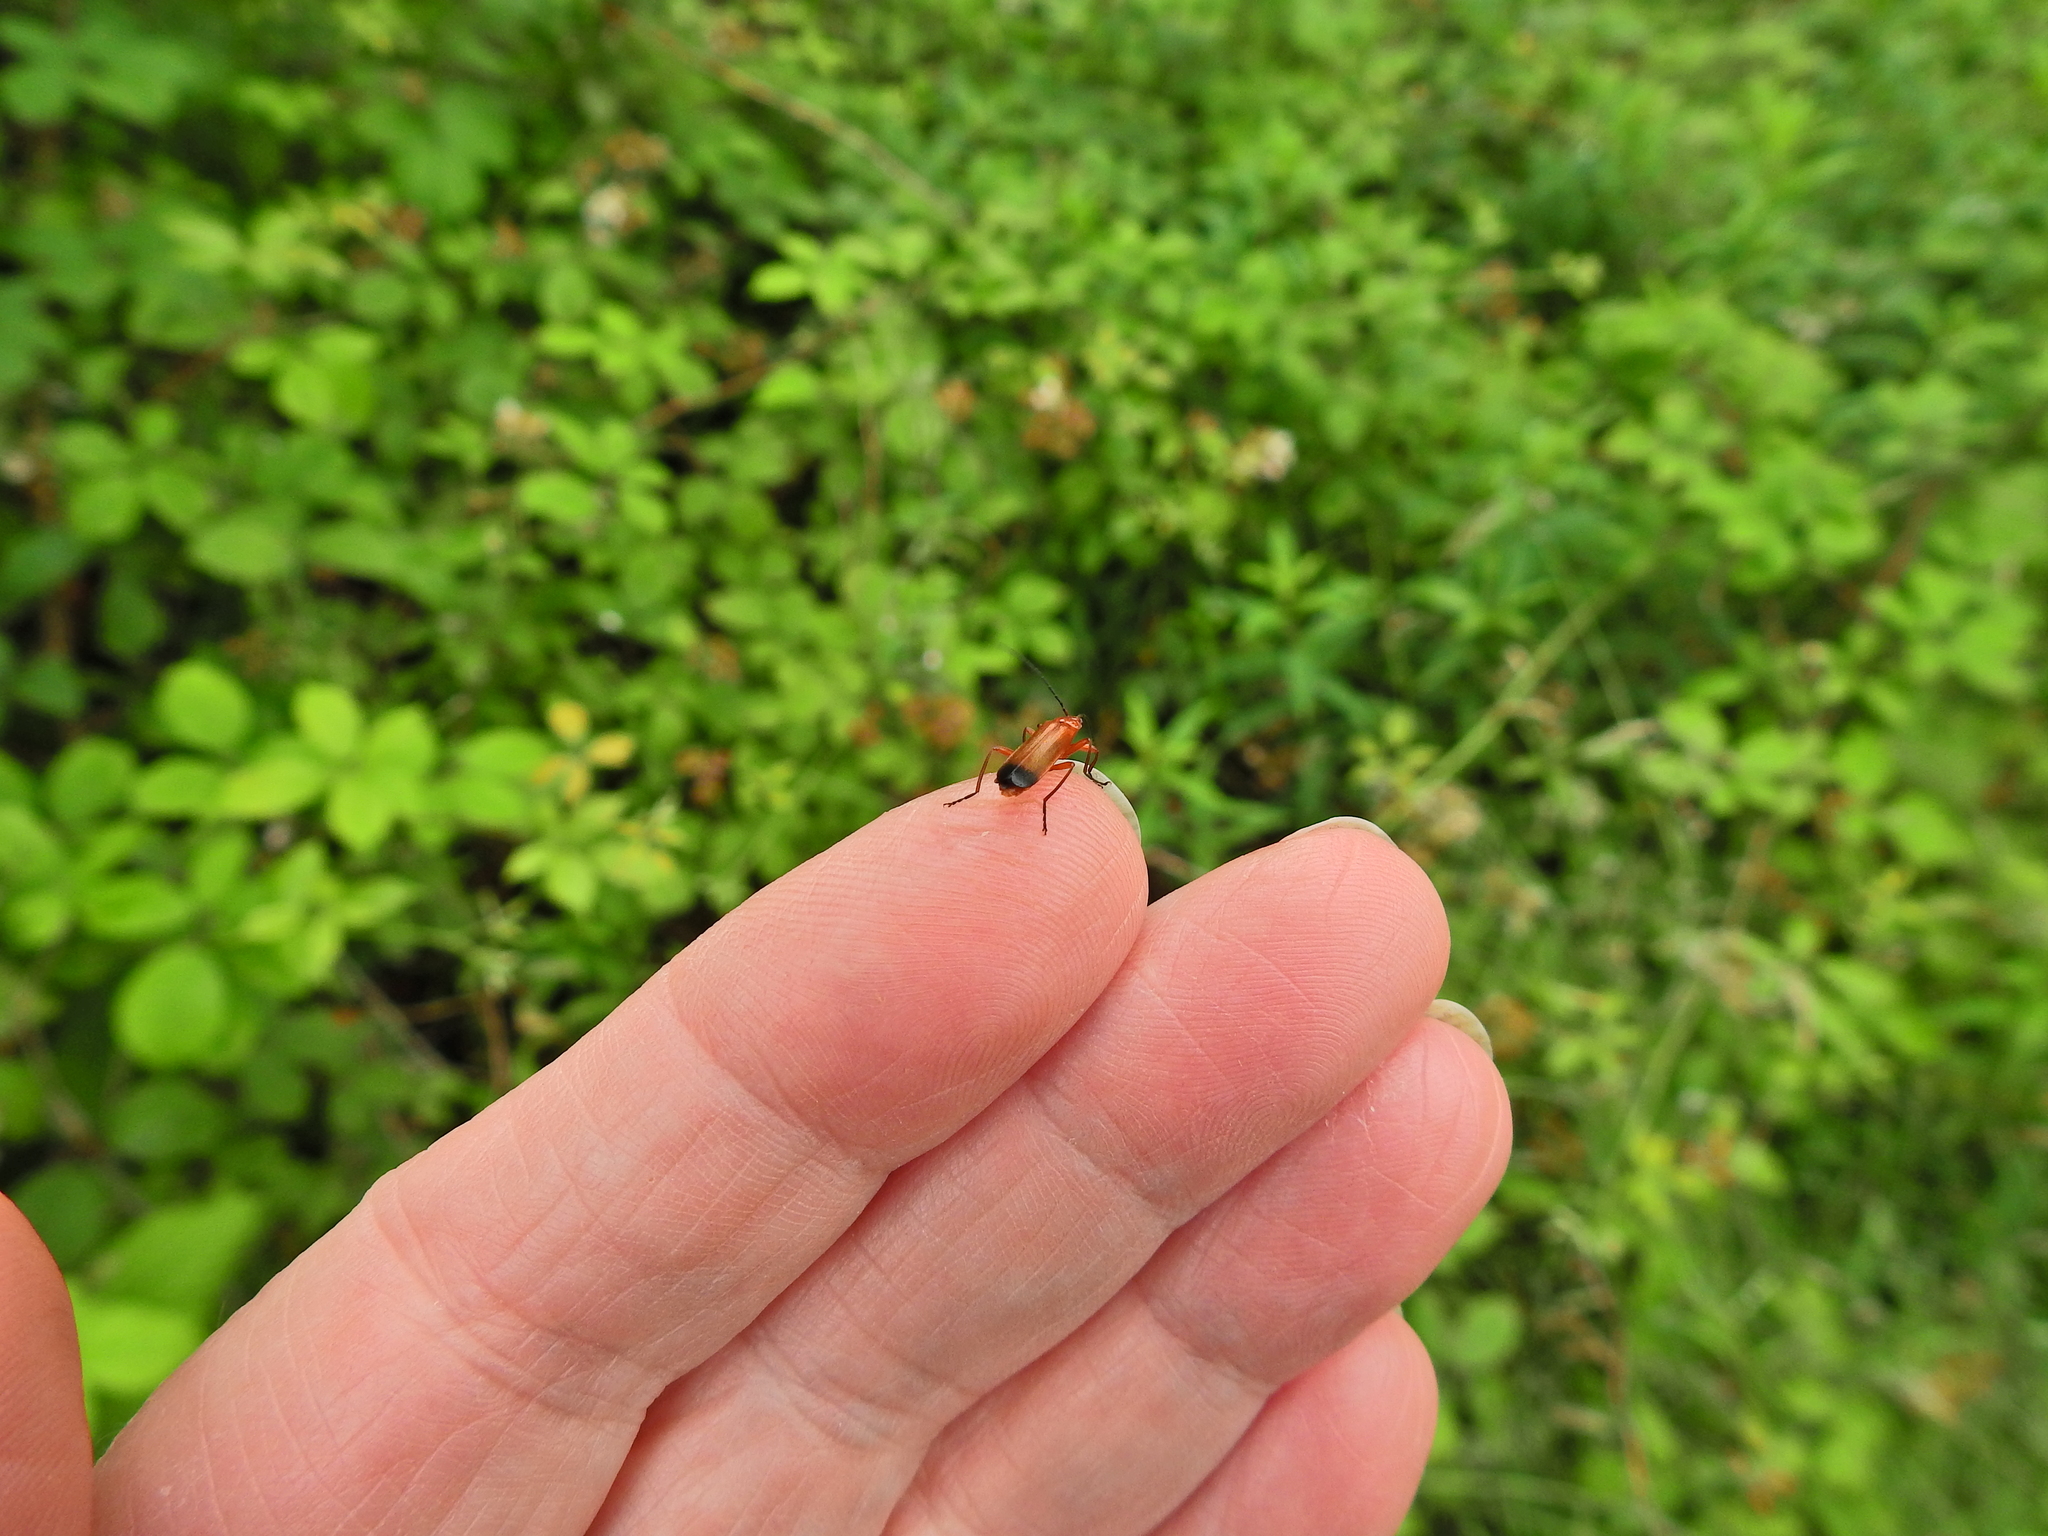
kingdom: Animalia
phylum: Arthropoda
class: Insecta
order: Coleoptera
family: Cantharidae
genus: Rhagonycha
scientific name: Rhagonycha fulva
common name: Common red soldier beetle
